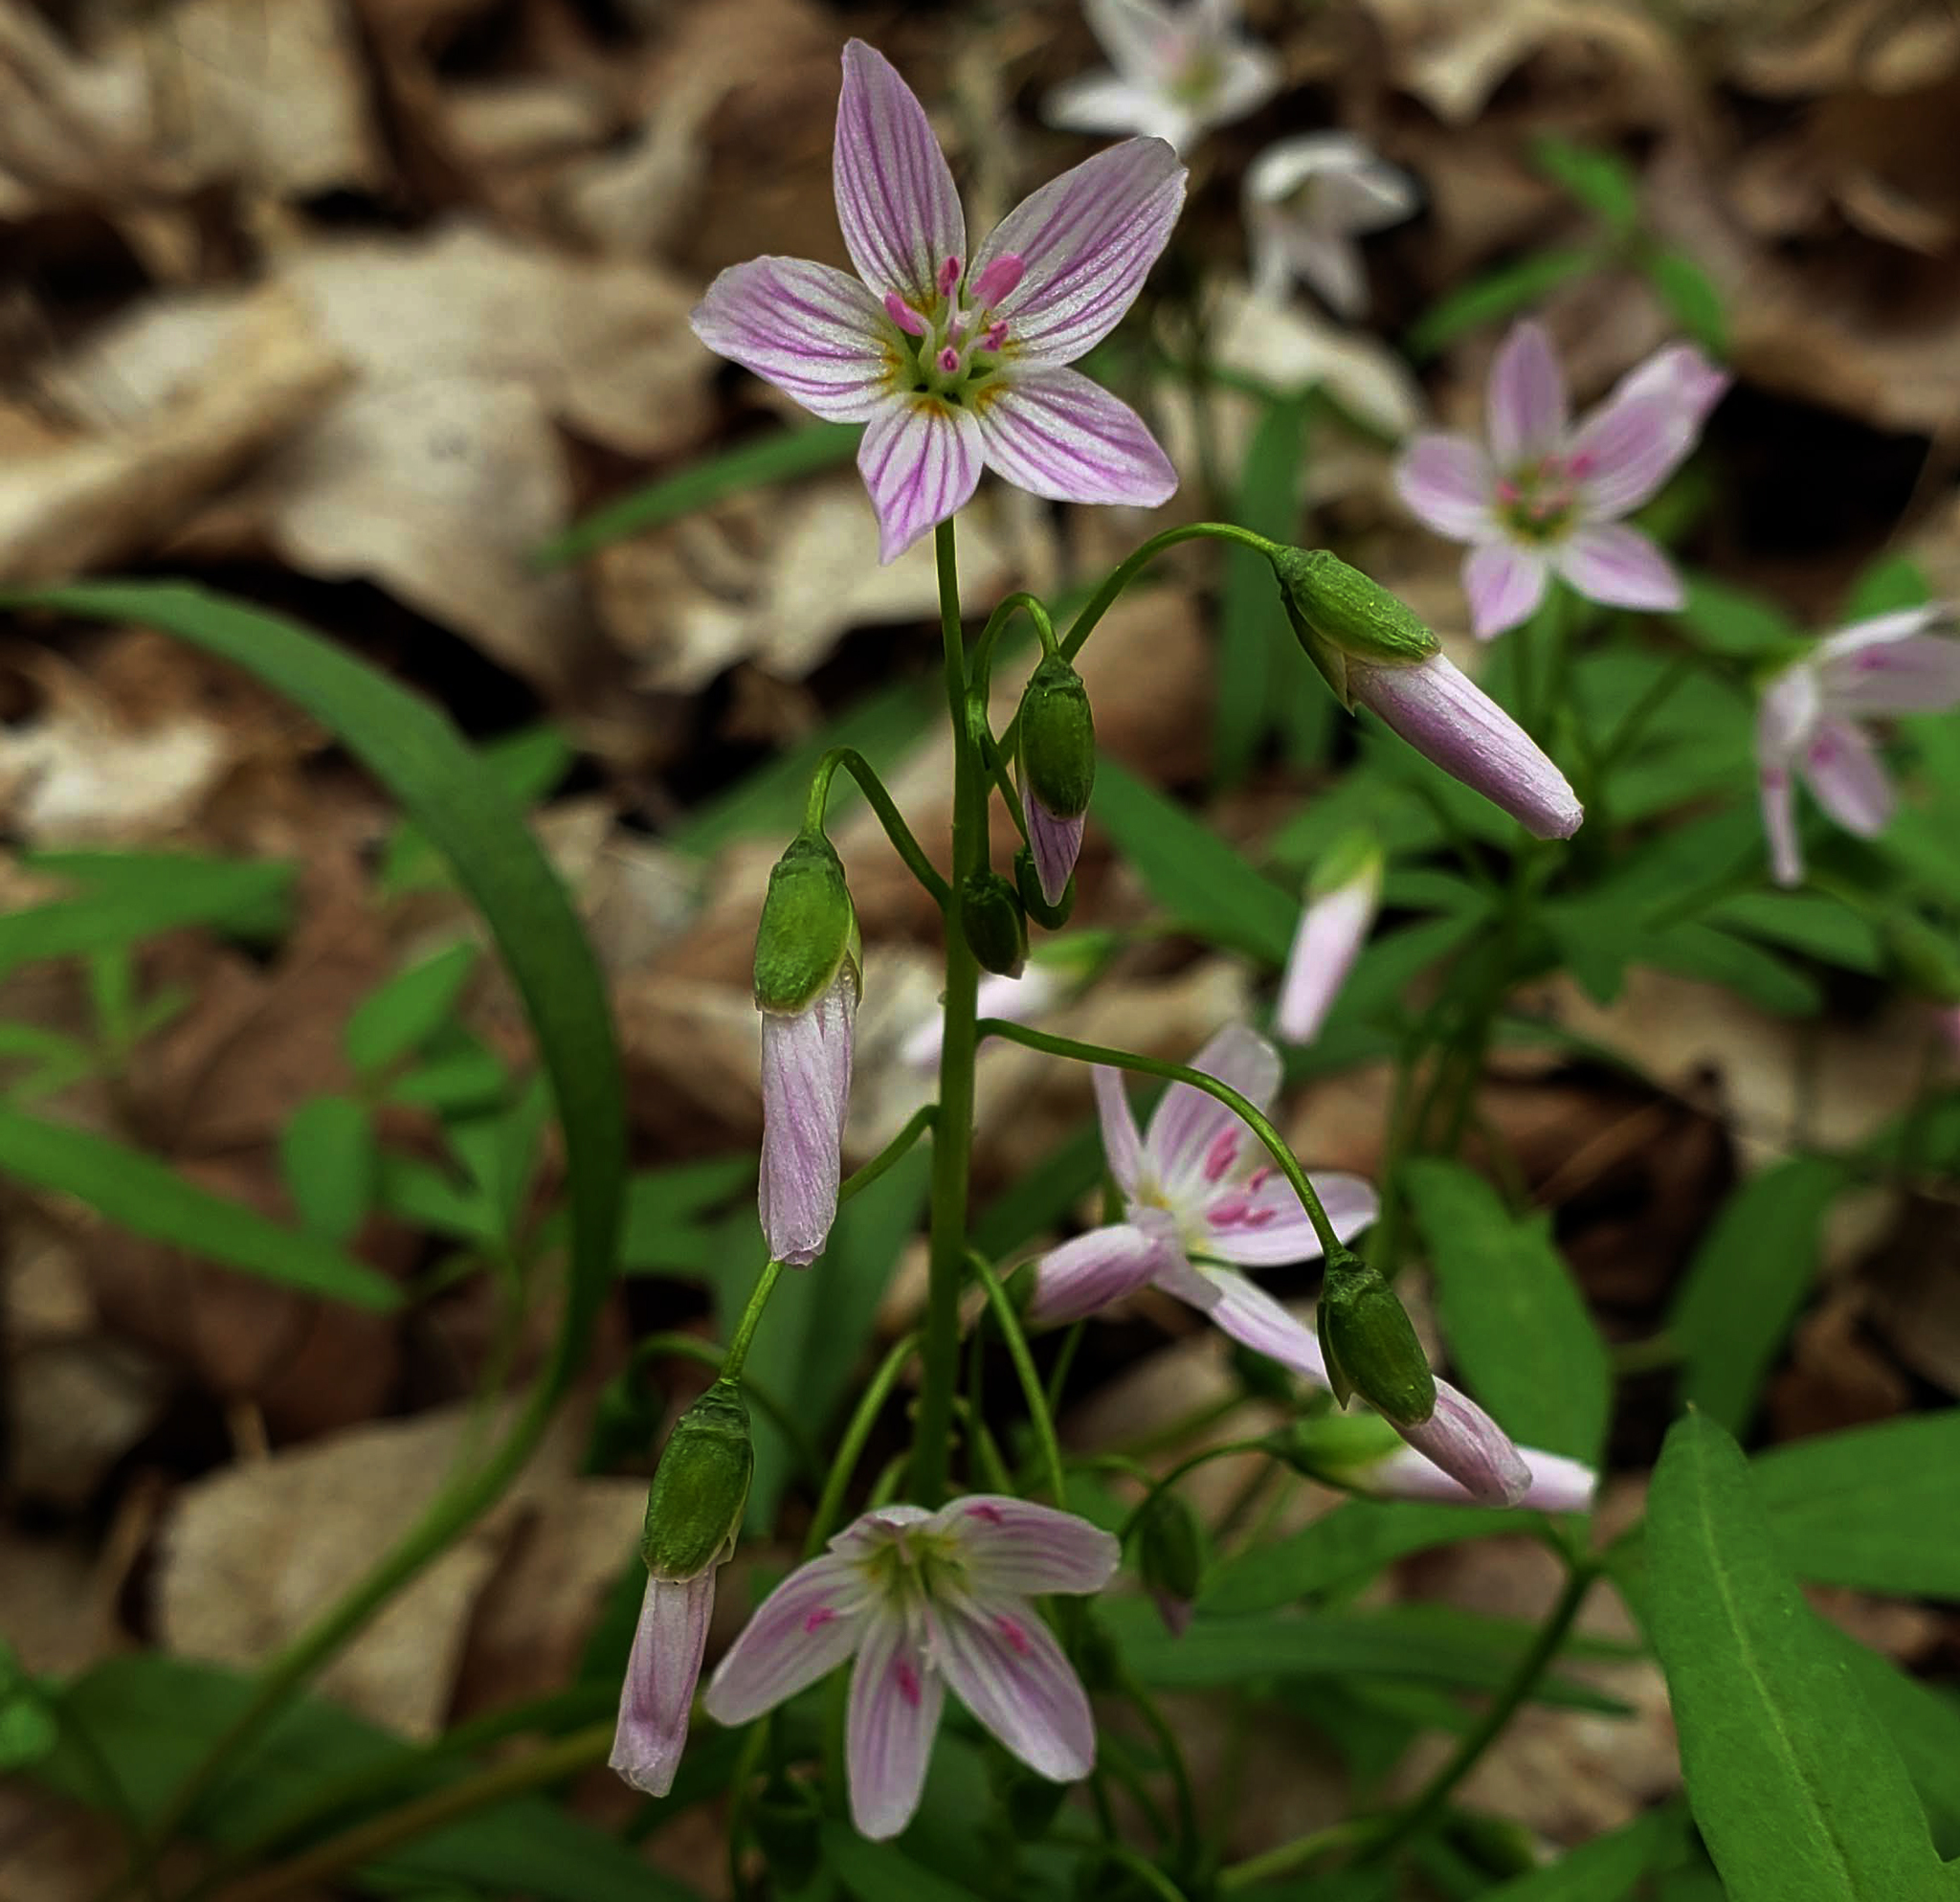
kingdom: Plantae
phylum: Tracheophyta
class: Magnoliopsida
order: Caryophyllales
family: Montiaceae
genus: Claytonia
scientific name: Claytonia virginica
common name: Virginia springbeauty
